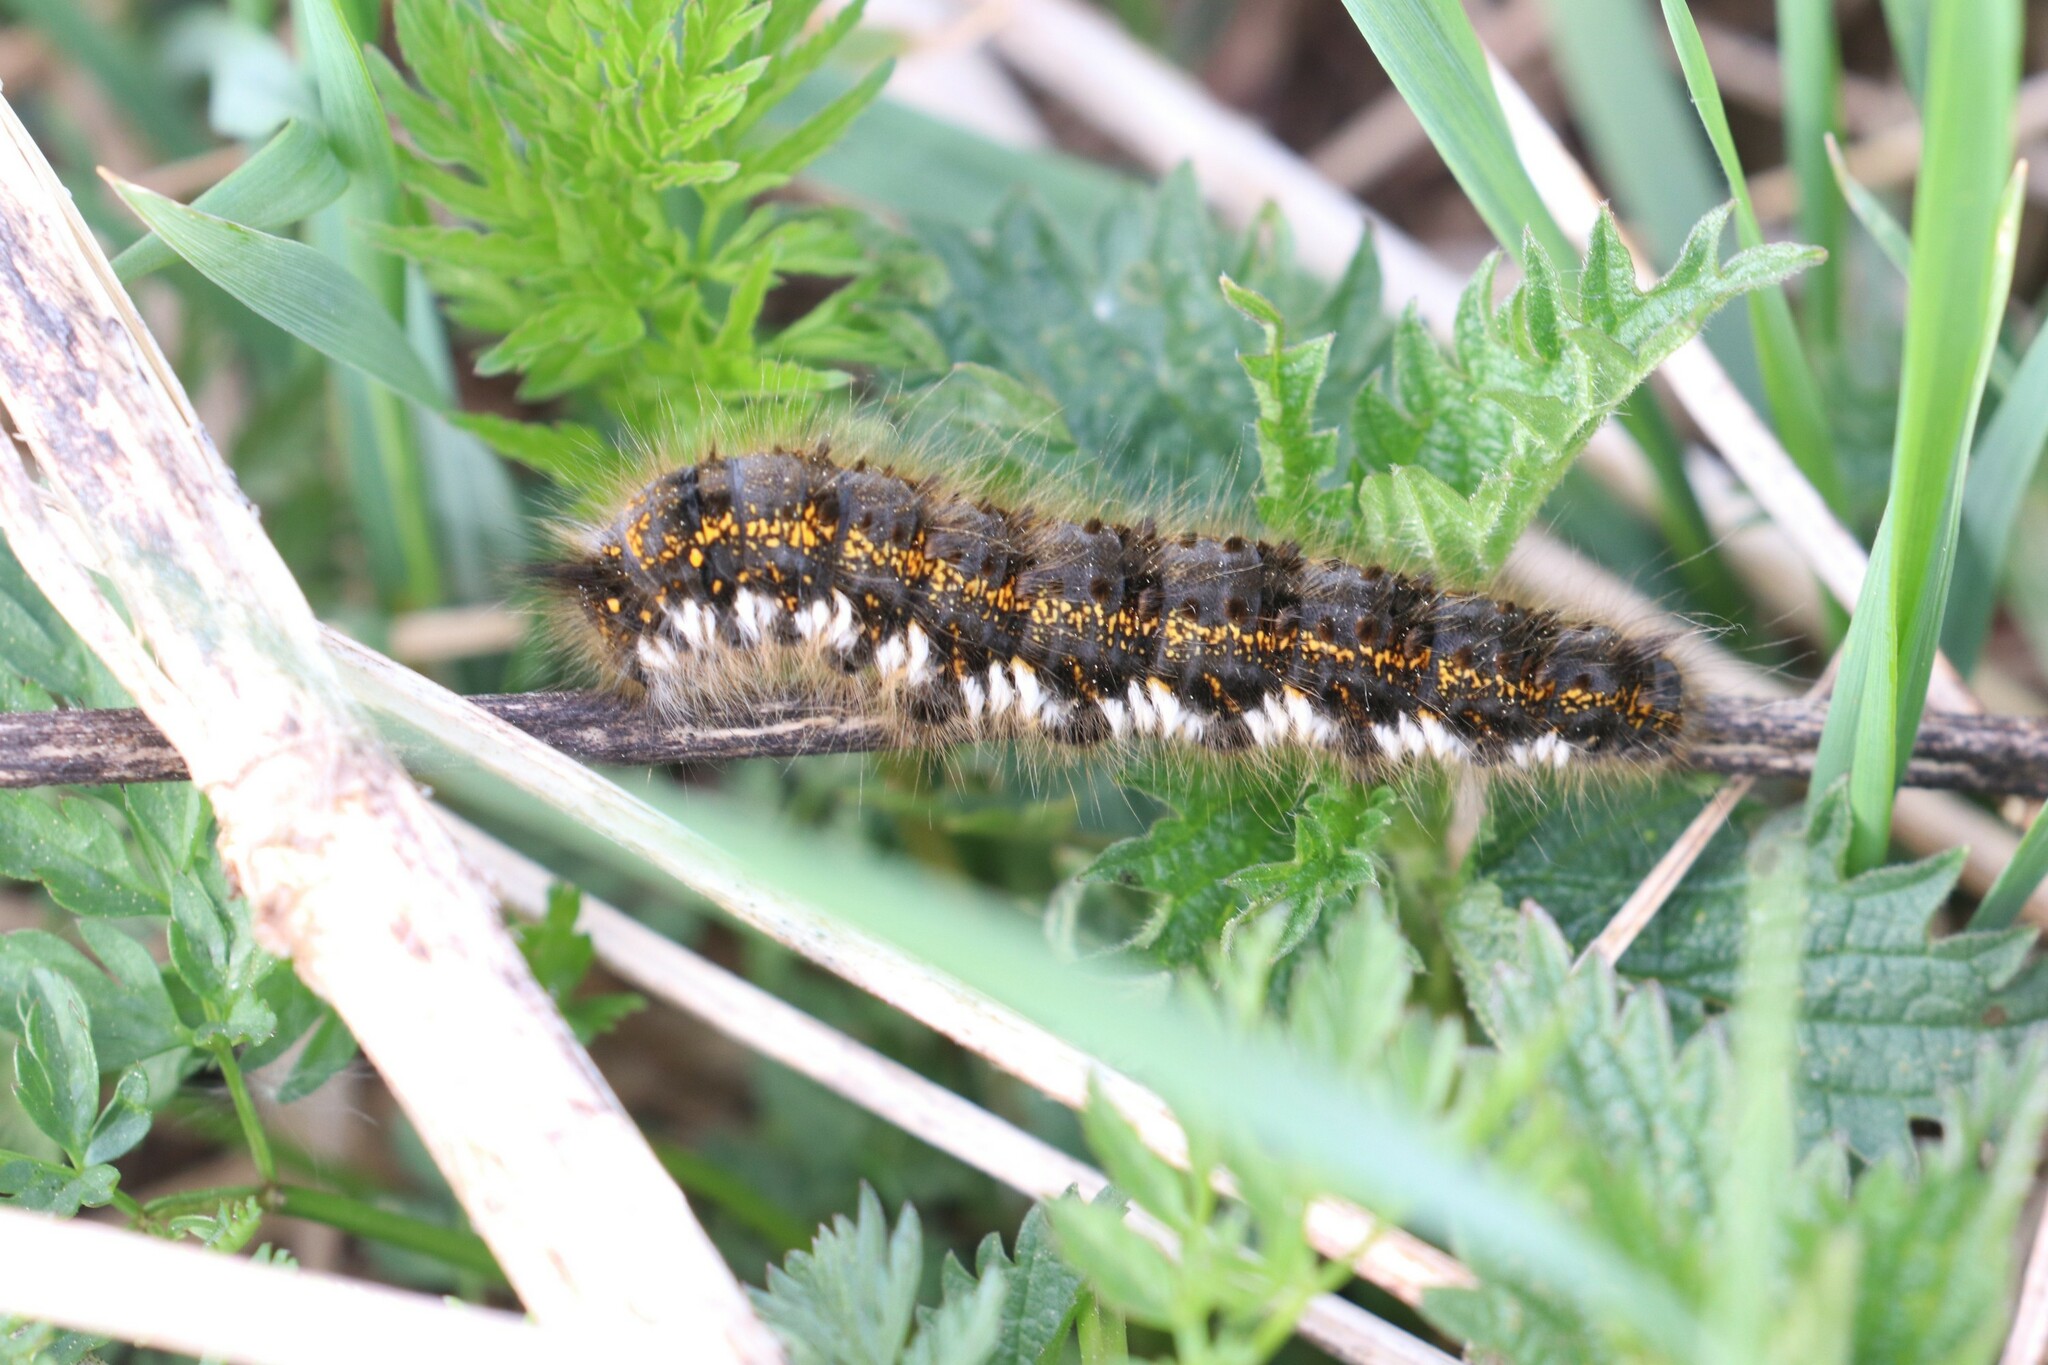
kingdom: Animalia
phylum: Arthropoda
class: Insecta
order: Lepidoptera
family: Lasiocampidae
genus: Euthrix
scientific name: Euthrix potatoria
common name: Drinker
